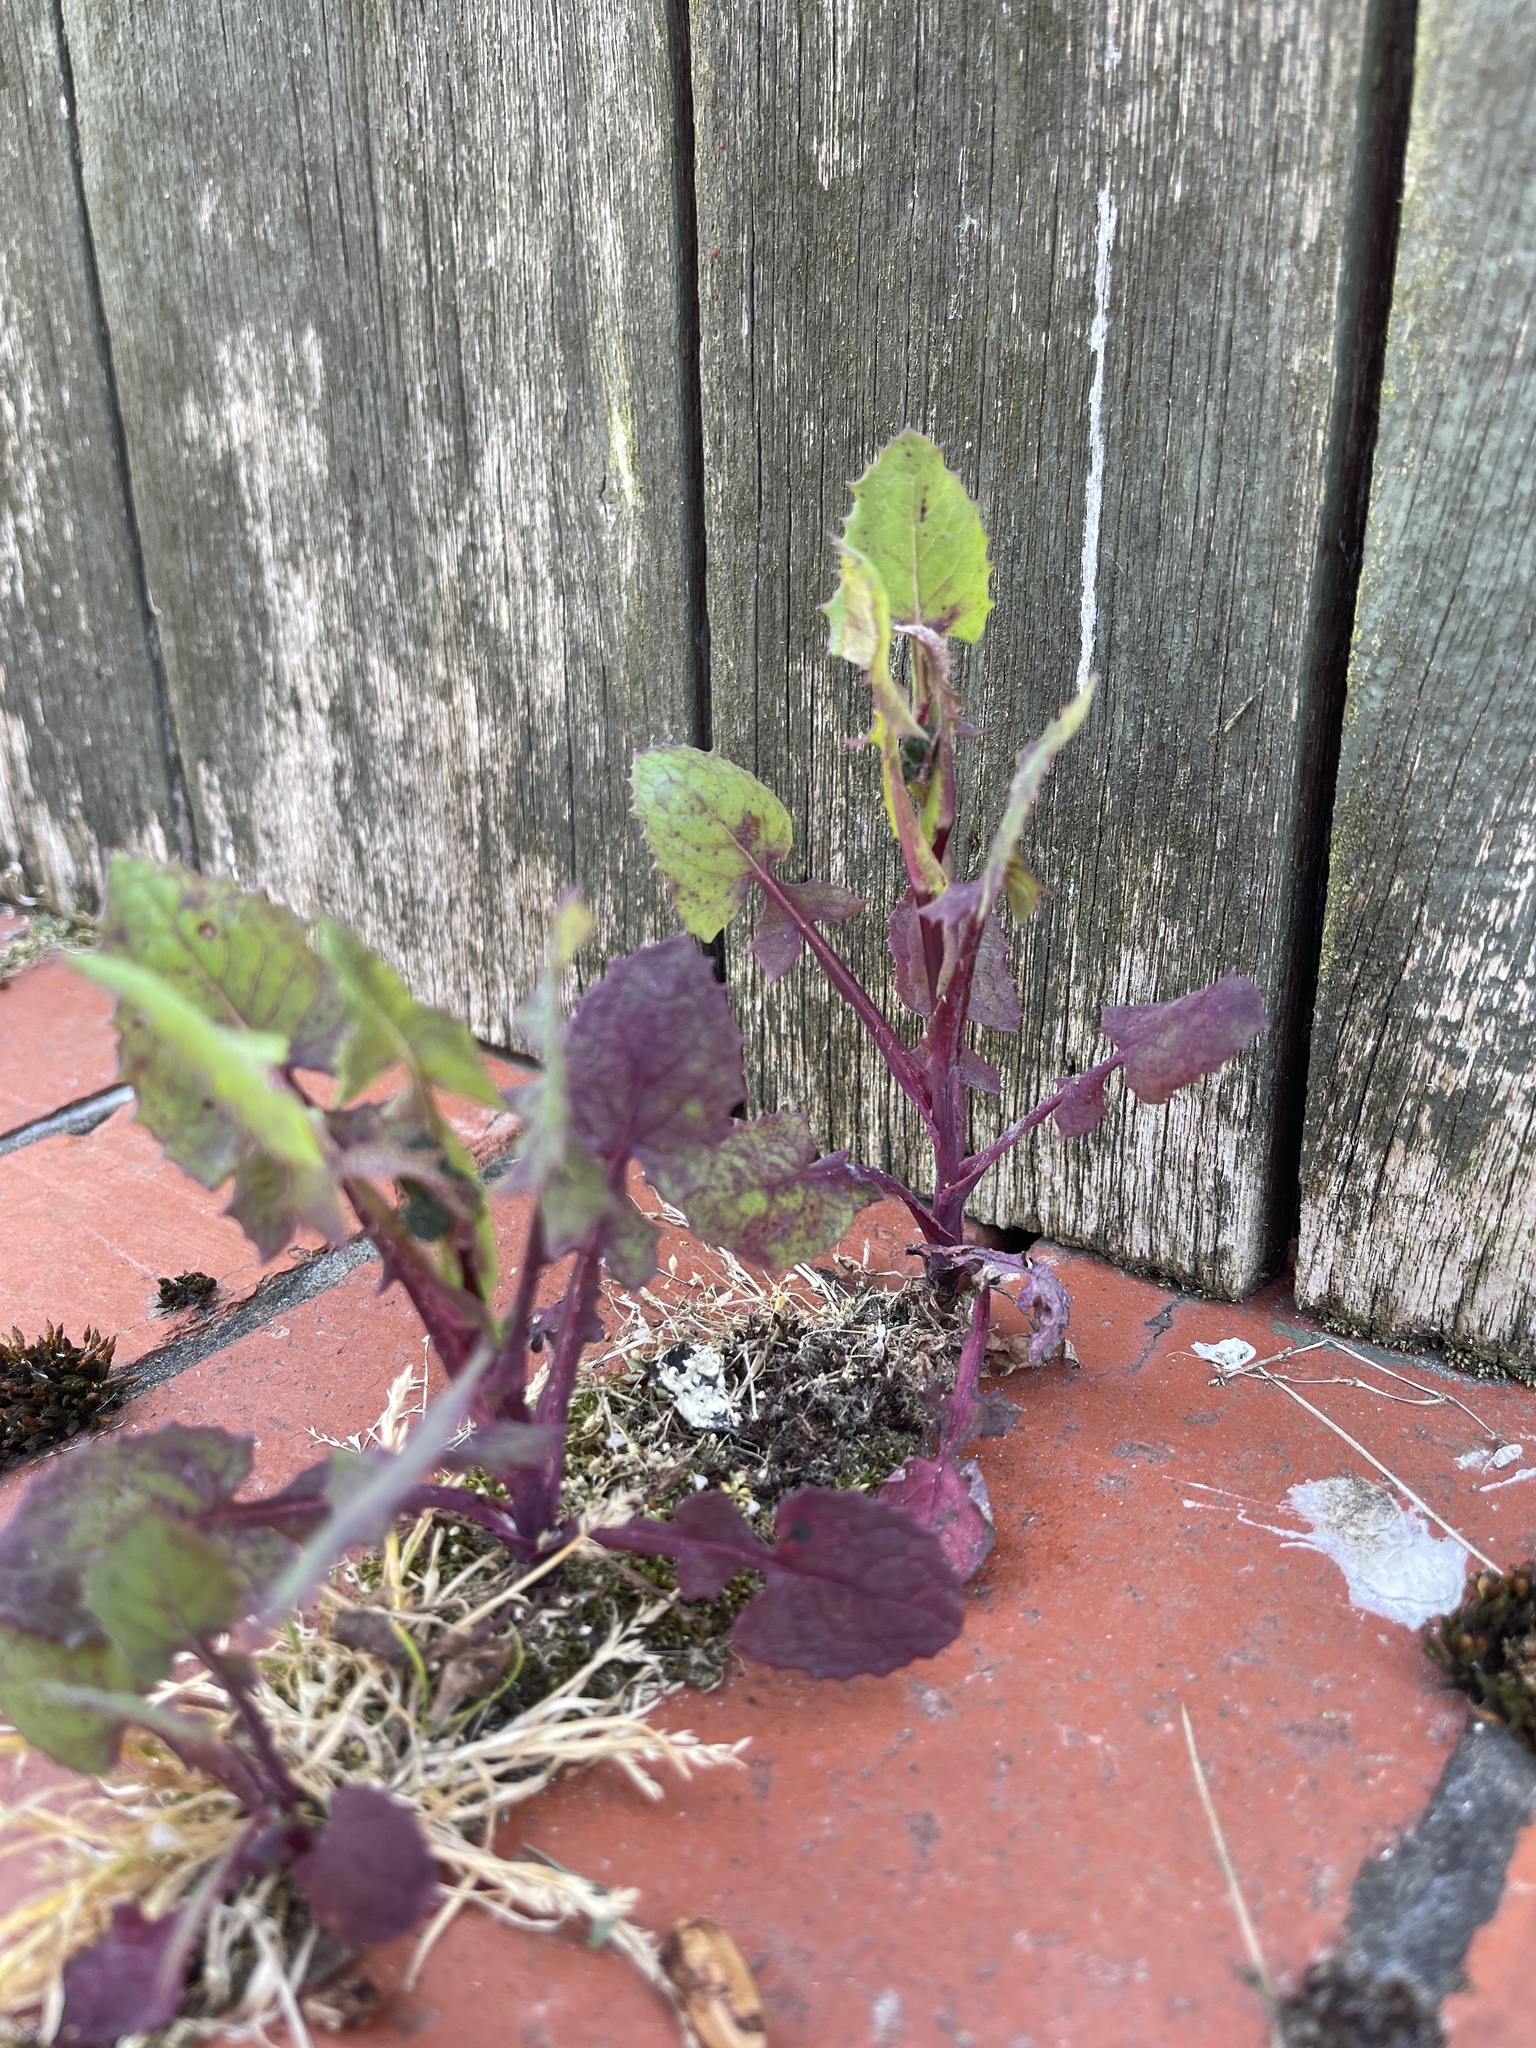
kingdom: Plantae
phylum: Tracheophyta
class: Magnoliopsida
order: Asterales
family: Asteraceae
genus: Sonchus
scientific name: Sonchus oleraceus
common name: Common sowthistle
